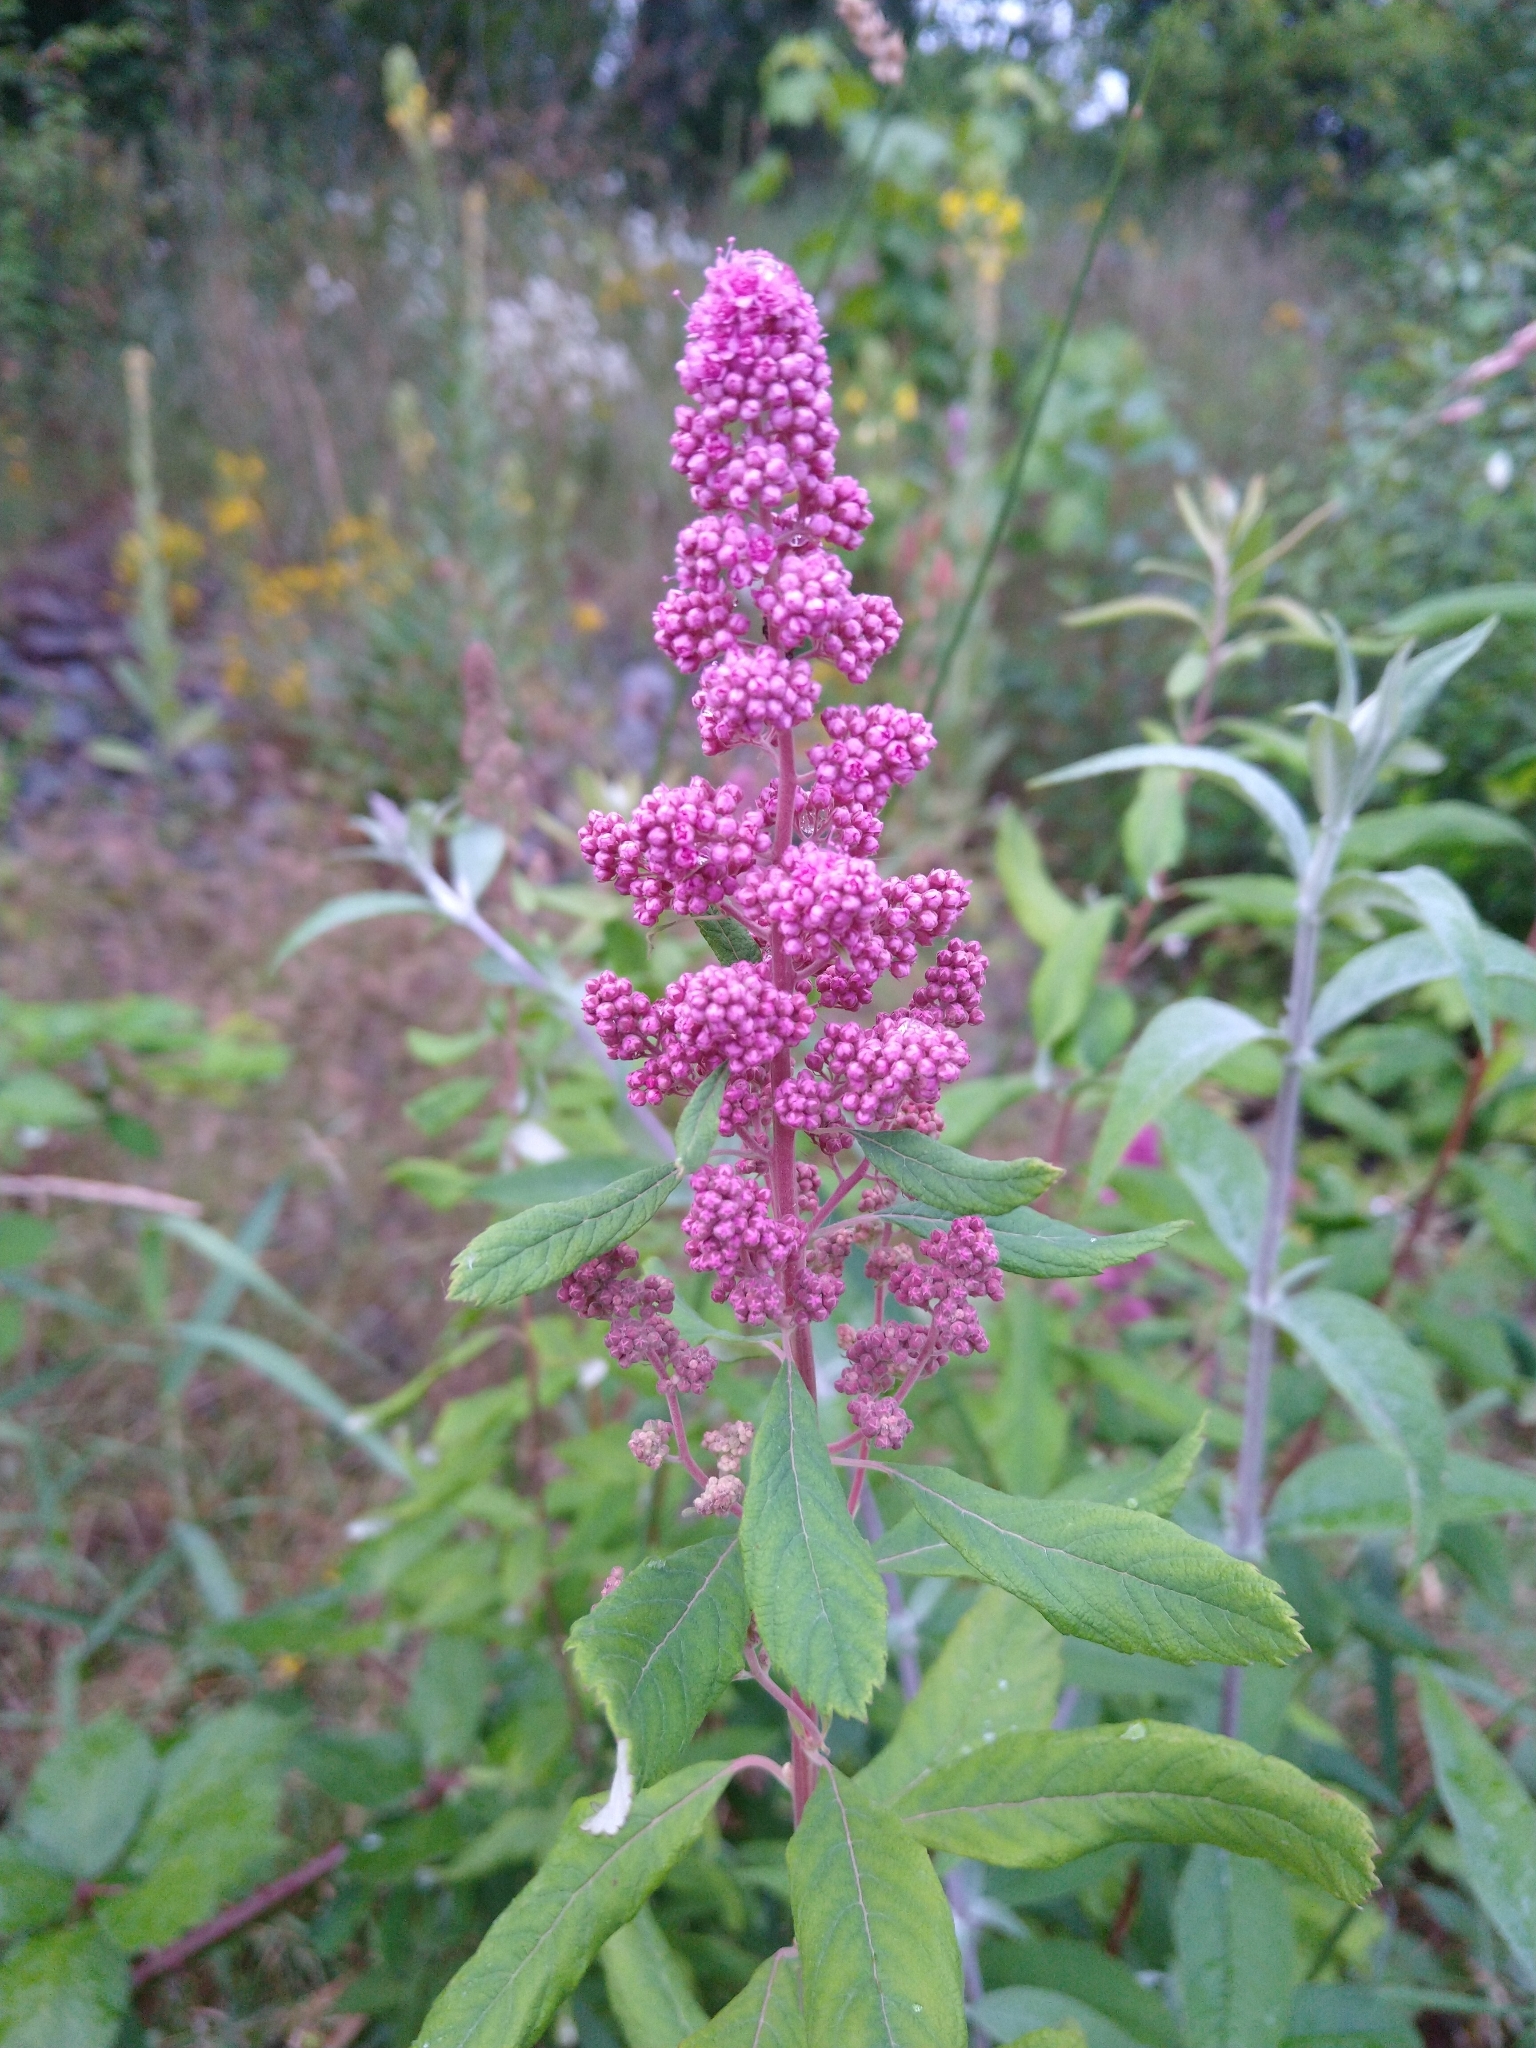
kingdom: Plantae
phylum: Tracheophyta
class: Magnoliopsida
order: Rosales
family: Rosaceae
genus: Spiraea
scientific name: Spiraea douglasii
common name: Steeplebush
